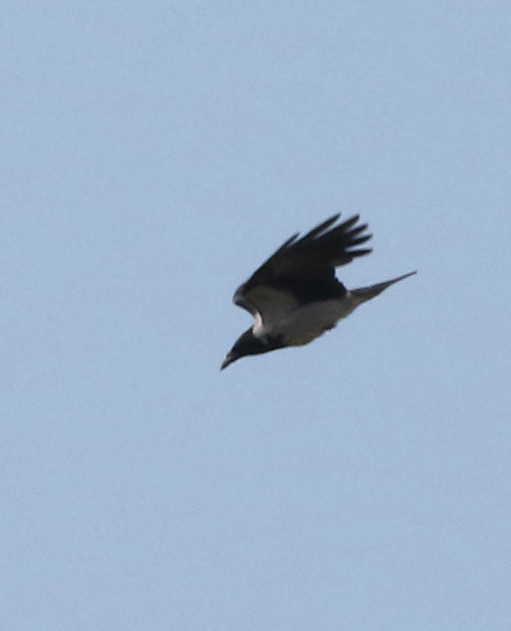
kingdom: Animalia
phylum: Chordata
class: Aves
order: Passeriformes
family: Corvidae
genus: Corvus
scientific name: Corvus cornix
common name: Hooded crow
